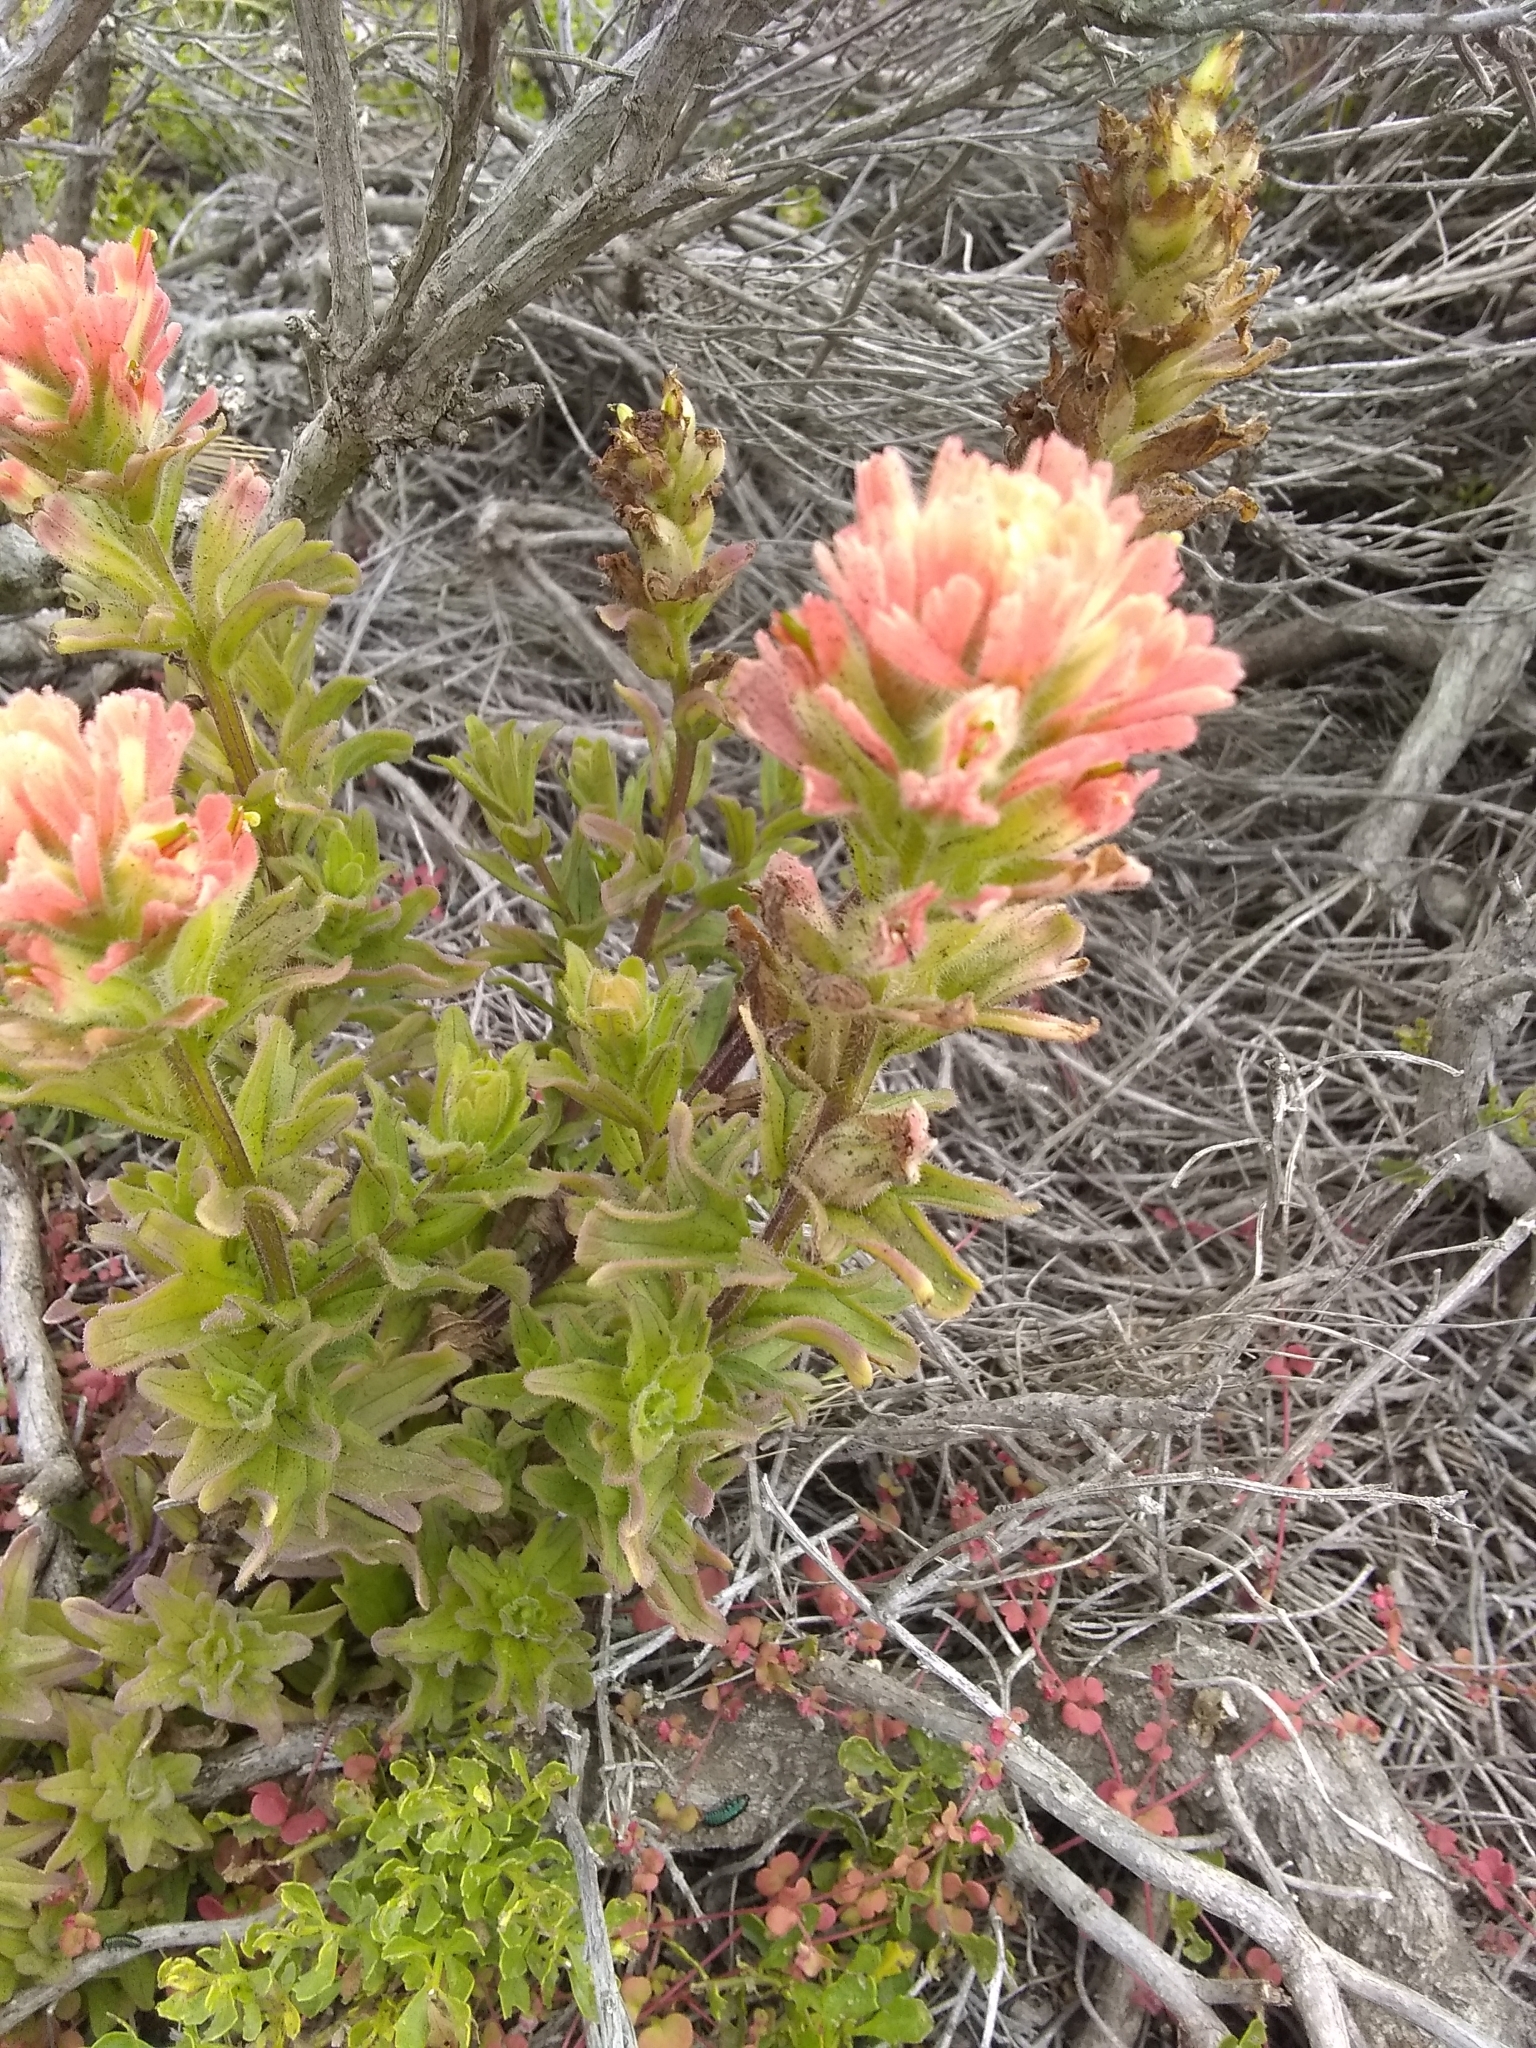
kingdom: Plantae
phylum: Tracheophyta
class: Magnoliopsida
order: Lamiales
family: Orobanchaceae
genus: Castilleja
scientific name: Castilleja wightii
